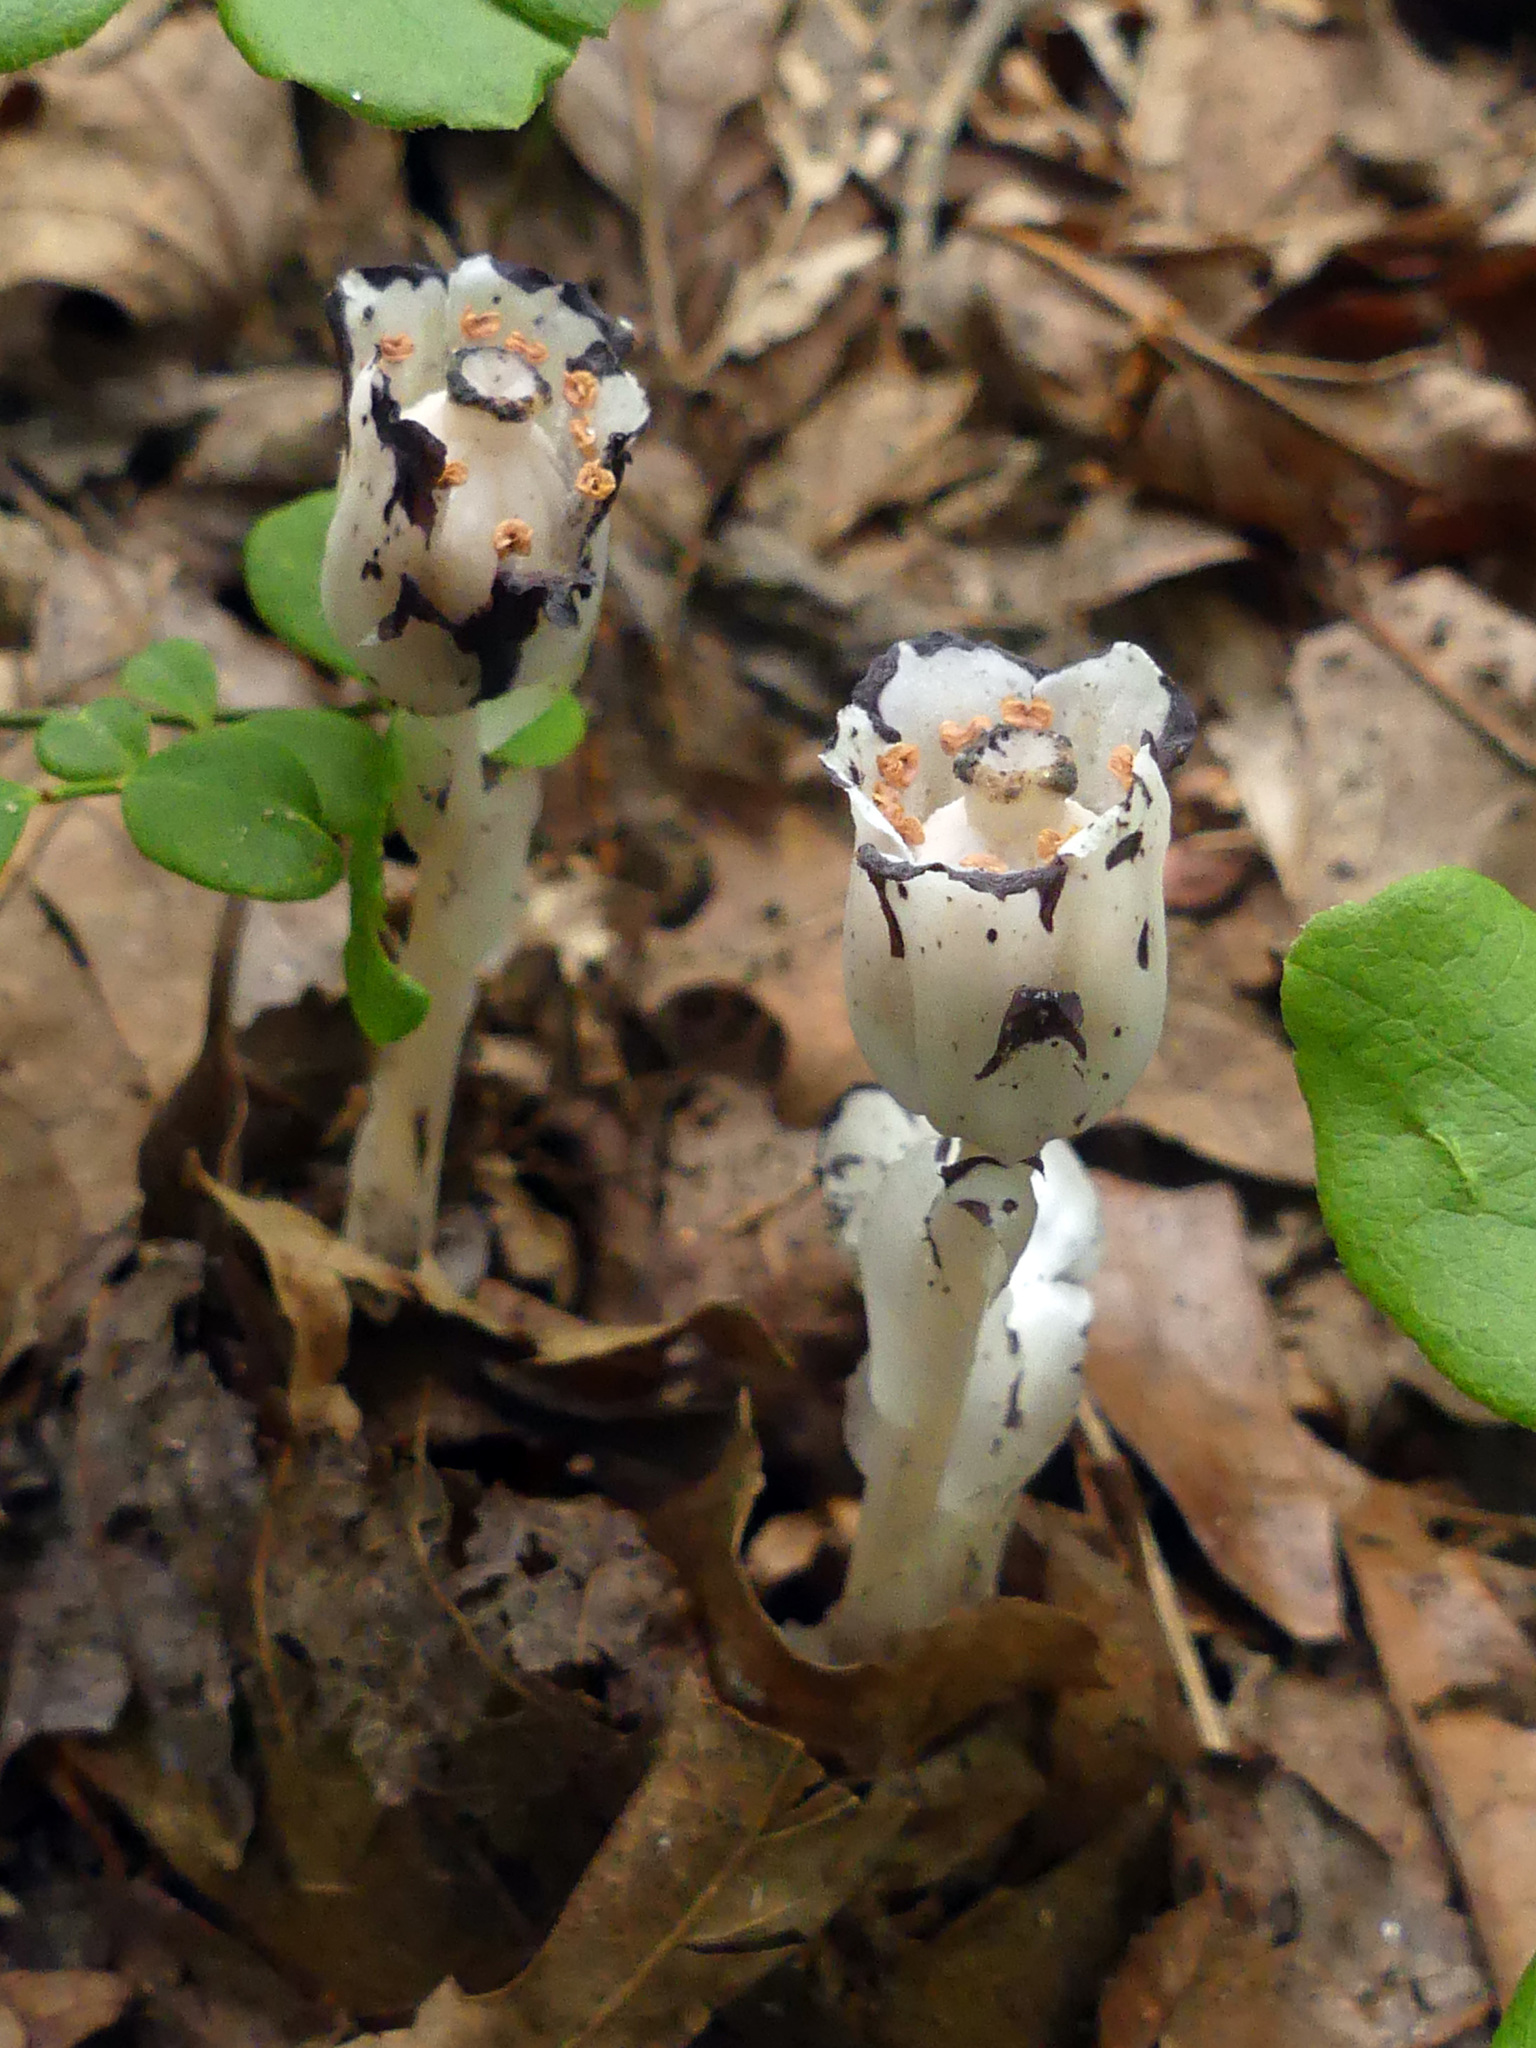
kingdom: Plantae
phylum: Tracheophyta
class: Magnoliopsida
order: Ericales
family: Ericaceae
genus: Monotropa
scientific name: Monotropa uniflora
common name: Convulsion root
